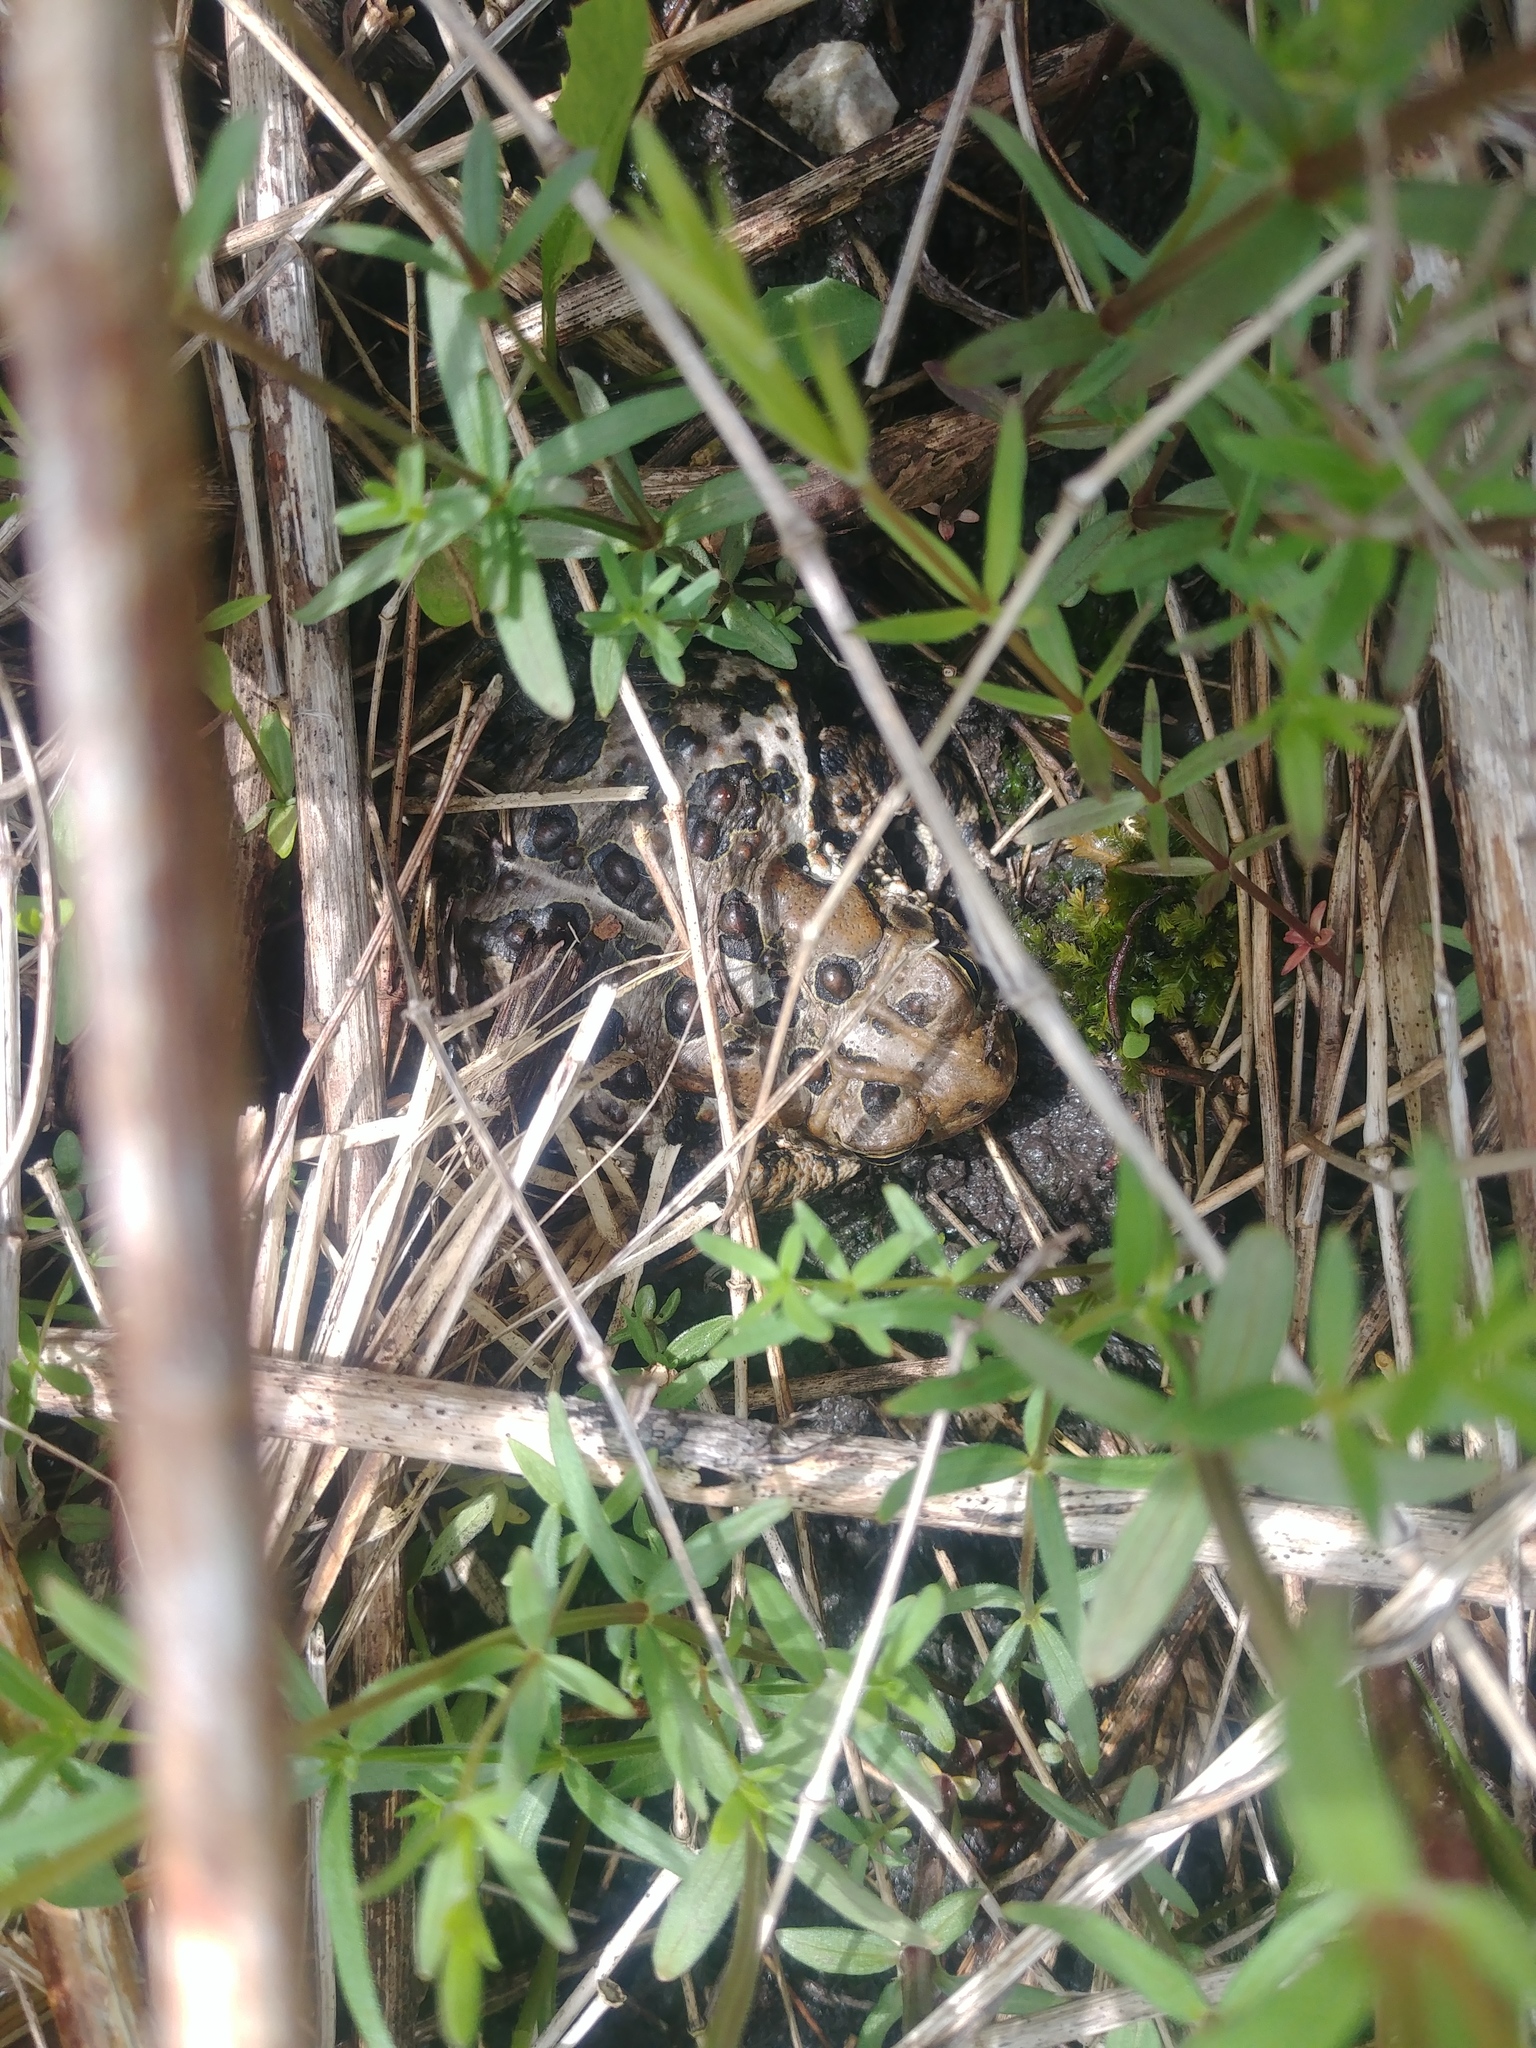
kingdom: Animalia
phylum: Chordata
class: Amphibia
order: Anura
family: Bufonidae
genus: Anaxyrus
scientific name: Anaxyrus americanus
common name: American toad
